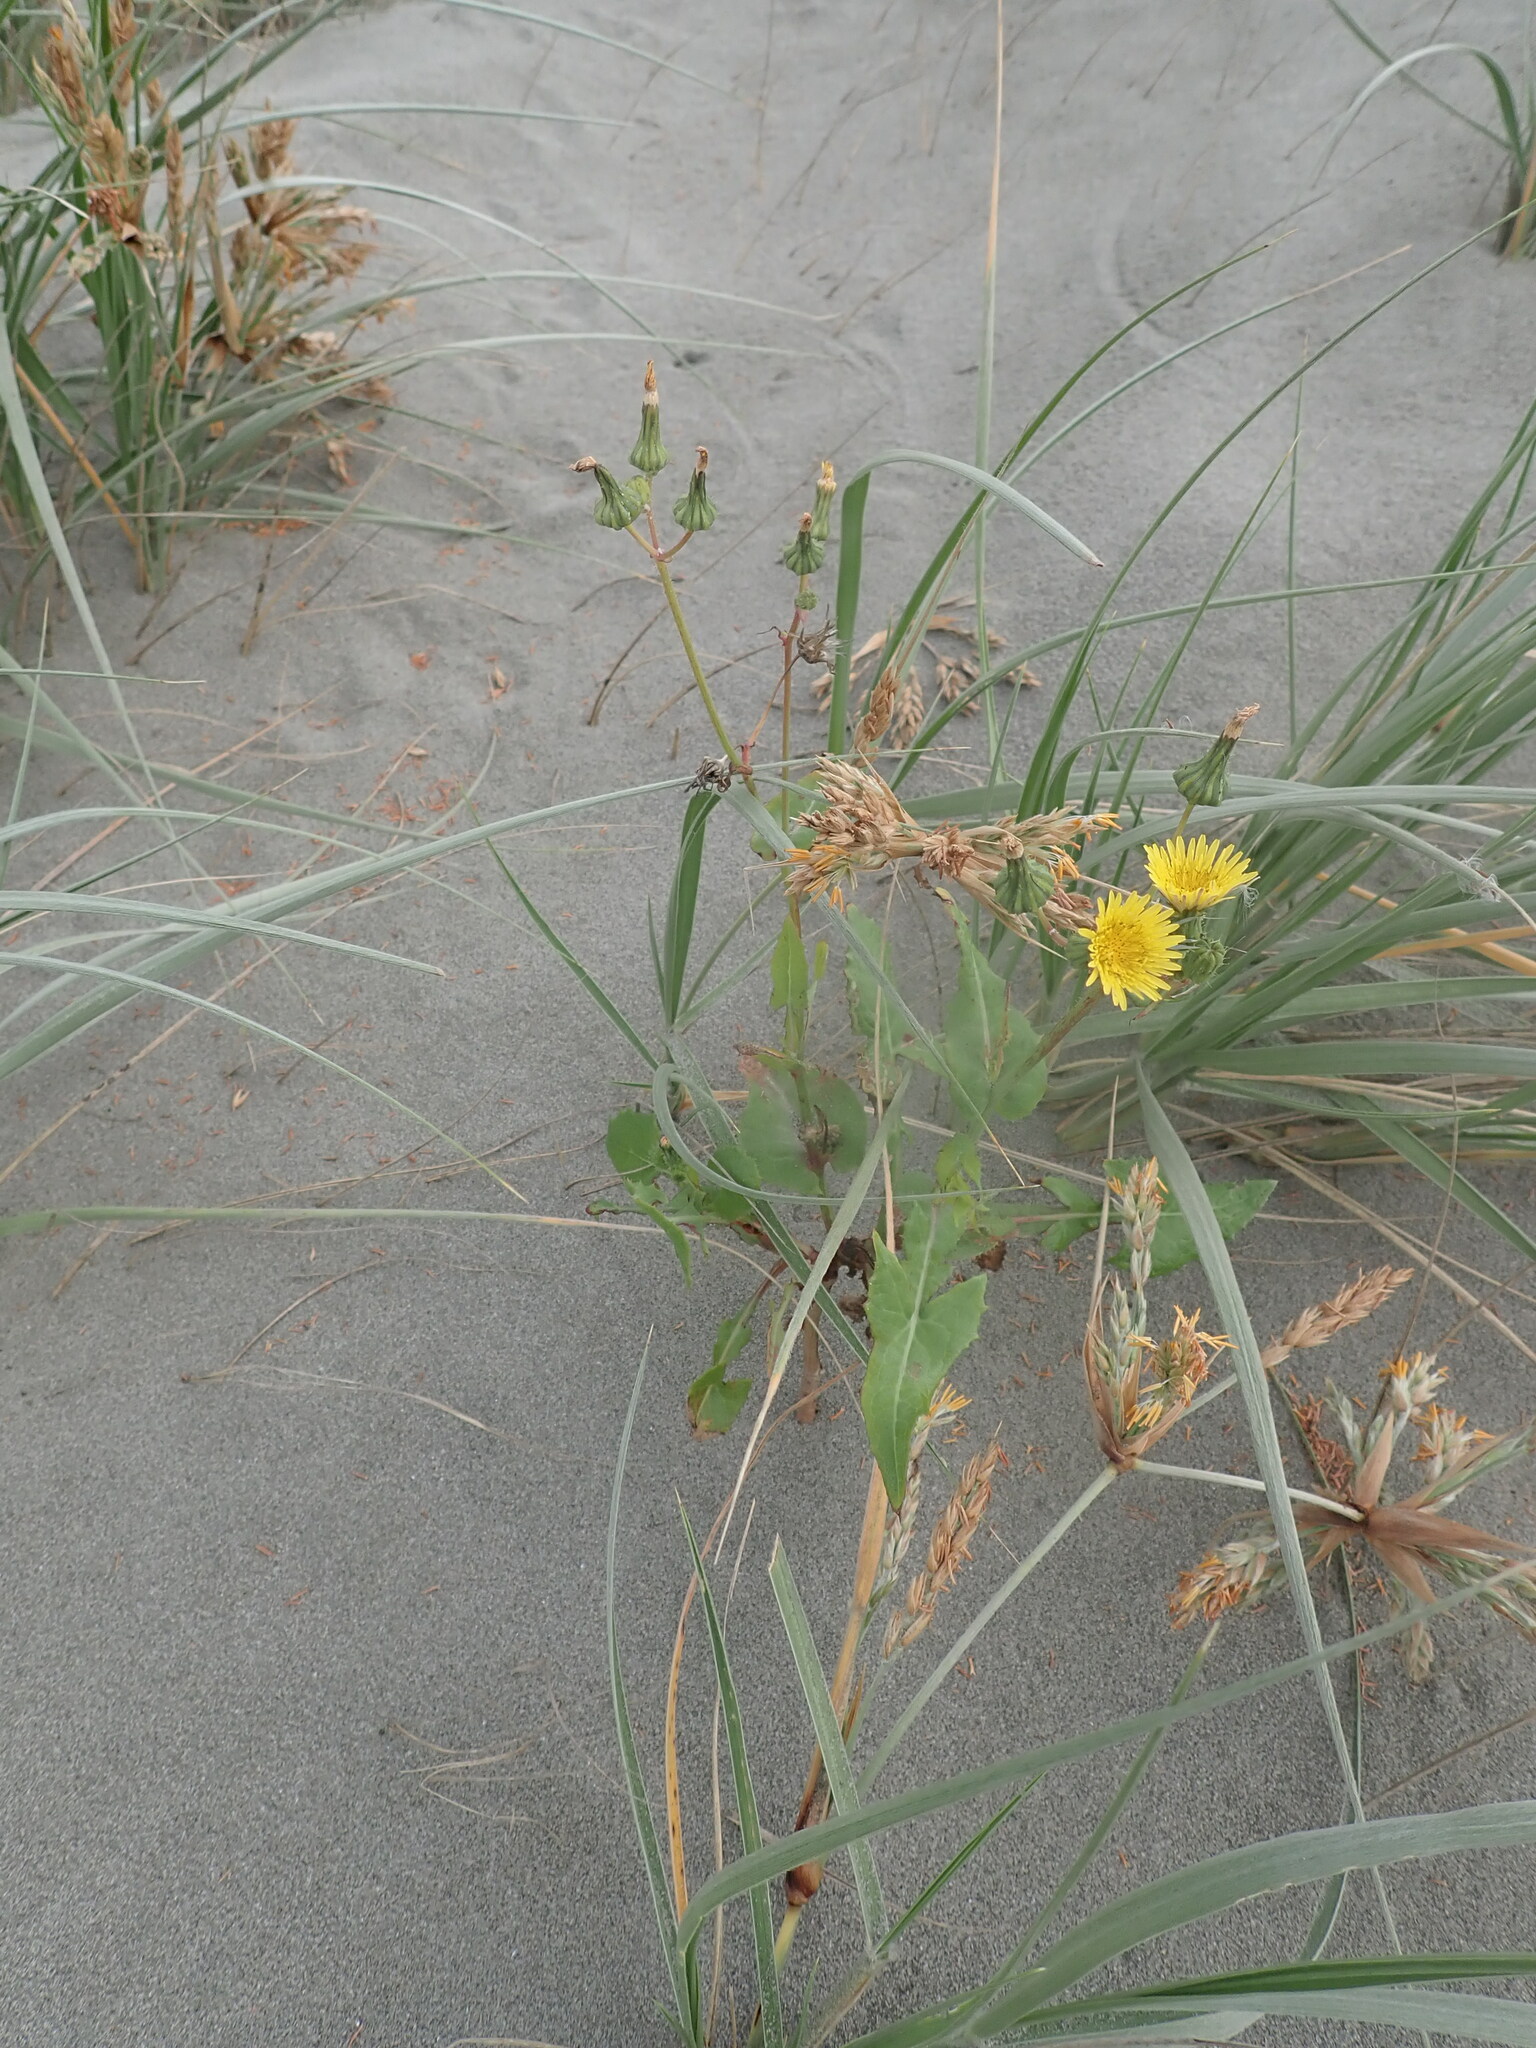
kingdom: Plantae
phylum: Tracheophyta
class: Magnoliopsida
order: Asterales
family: Asteraceae
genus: Sonchus
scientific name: Sonchus oleraceus
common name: Common sowthistle
